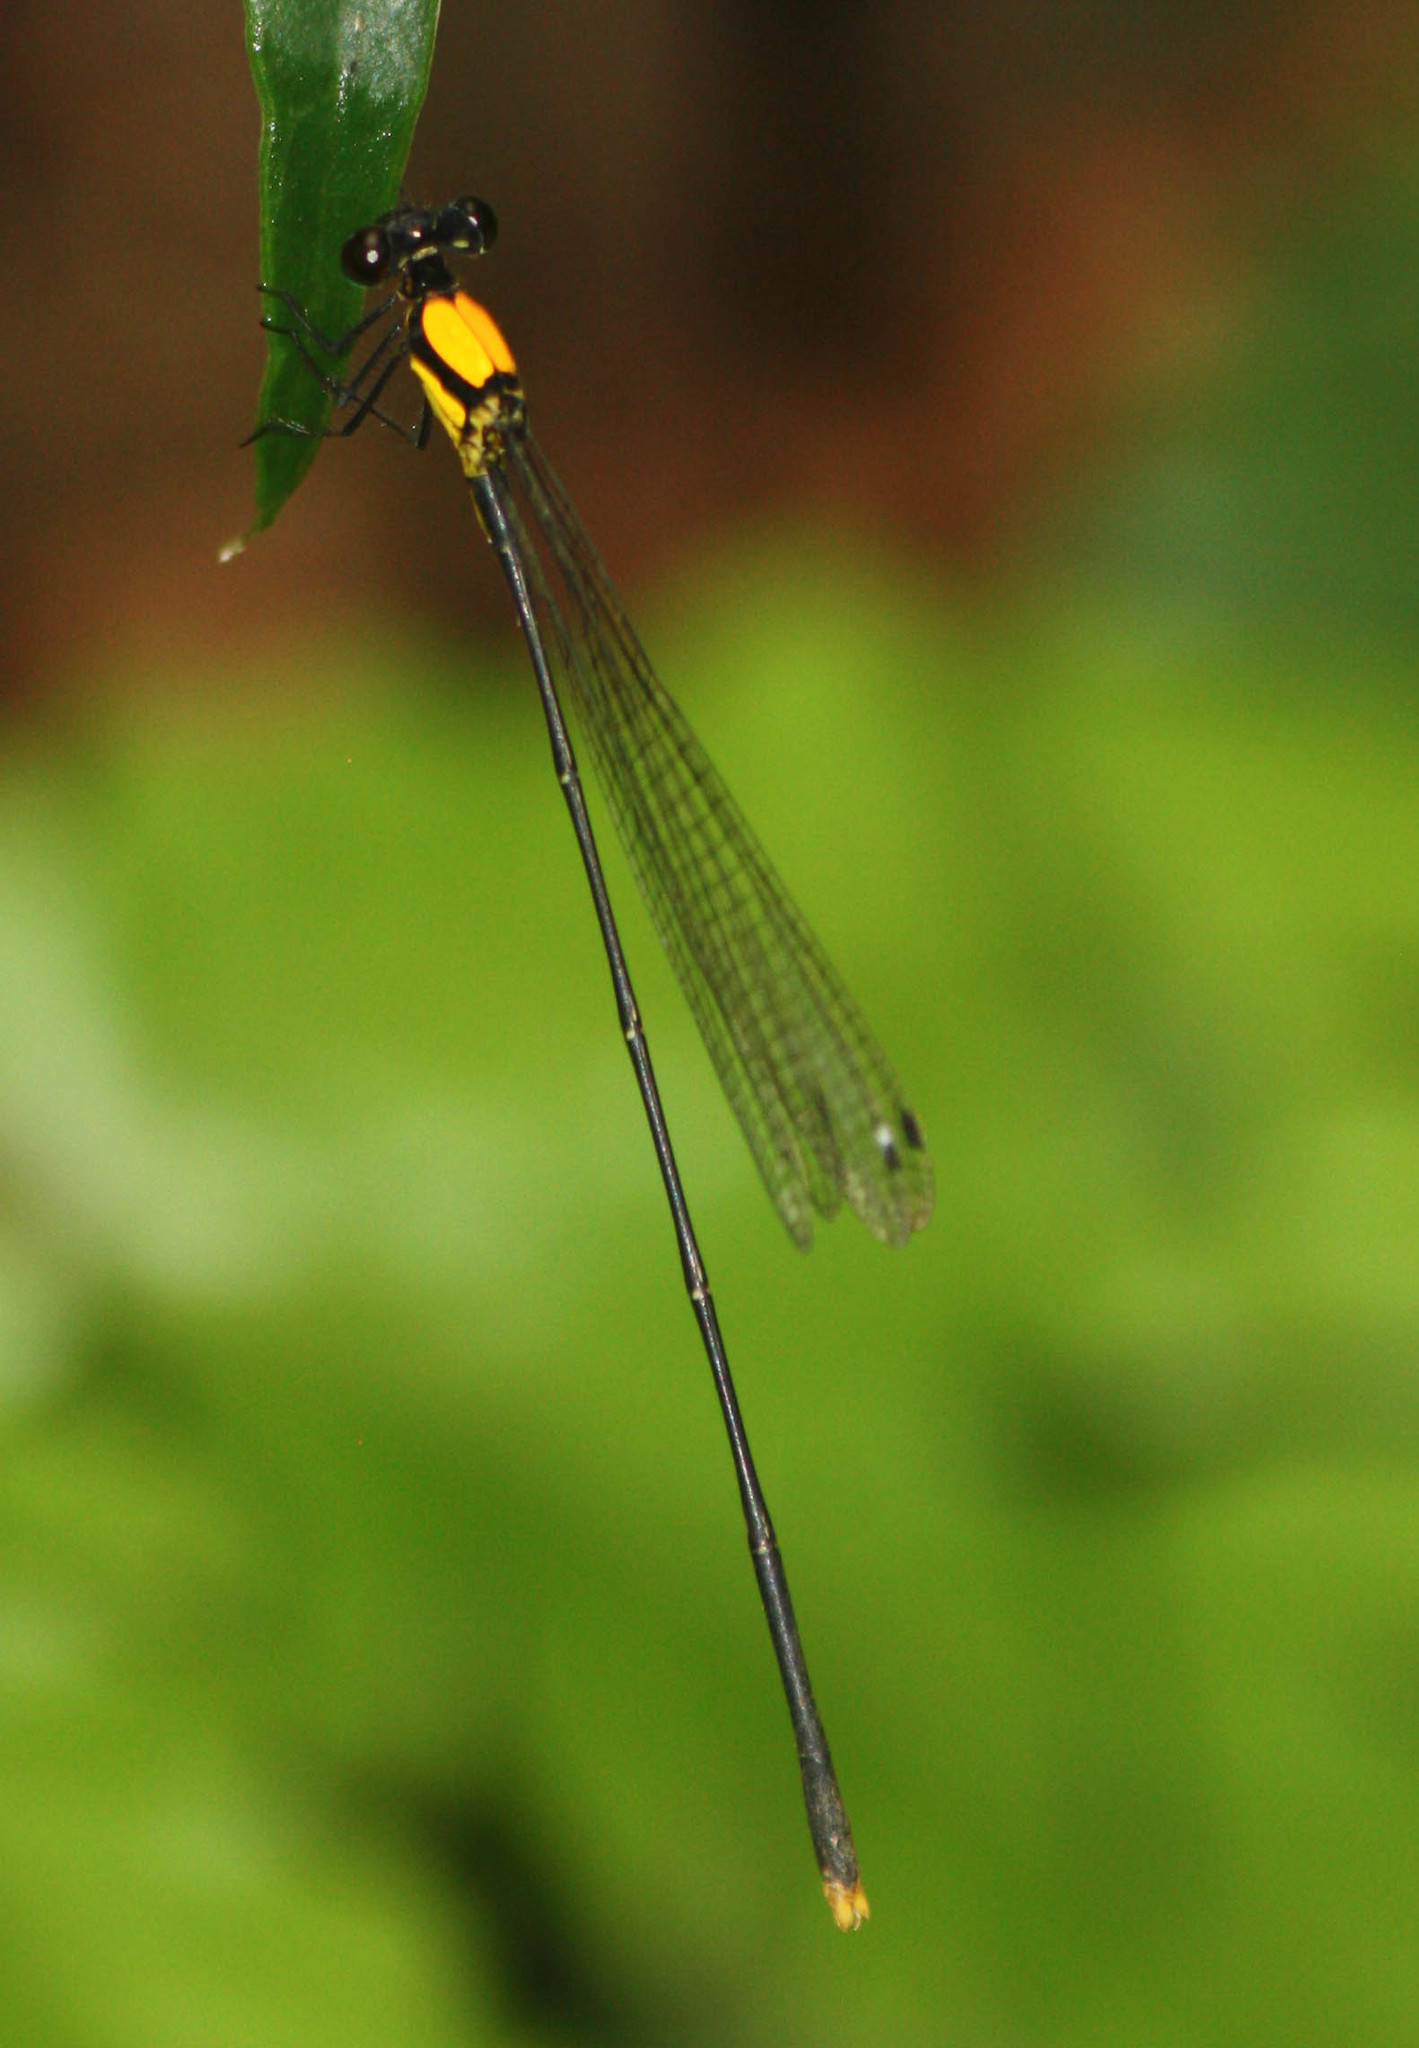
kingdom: Animalia
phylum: Arthropoda
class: Insecta
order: Odonata
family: Platycnemididae
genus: Coeliccia
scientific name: Coeliccia chromothorax
